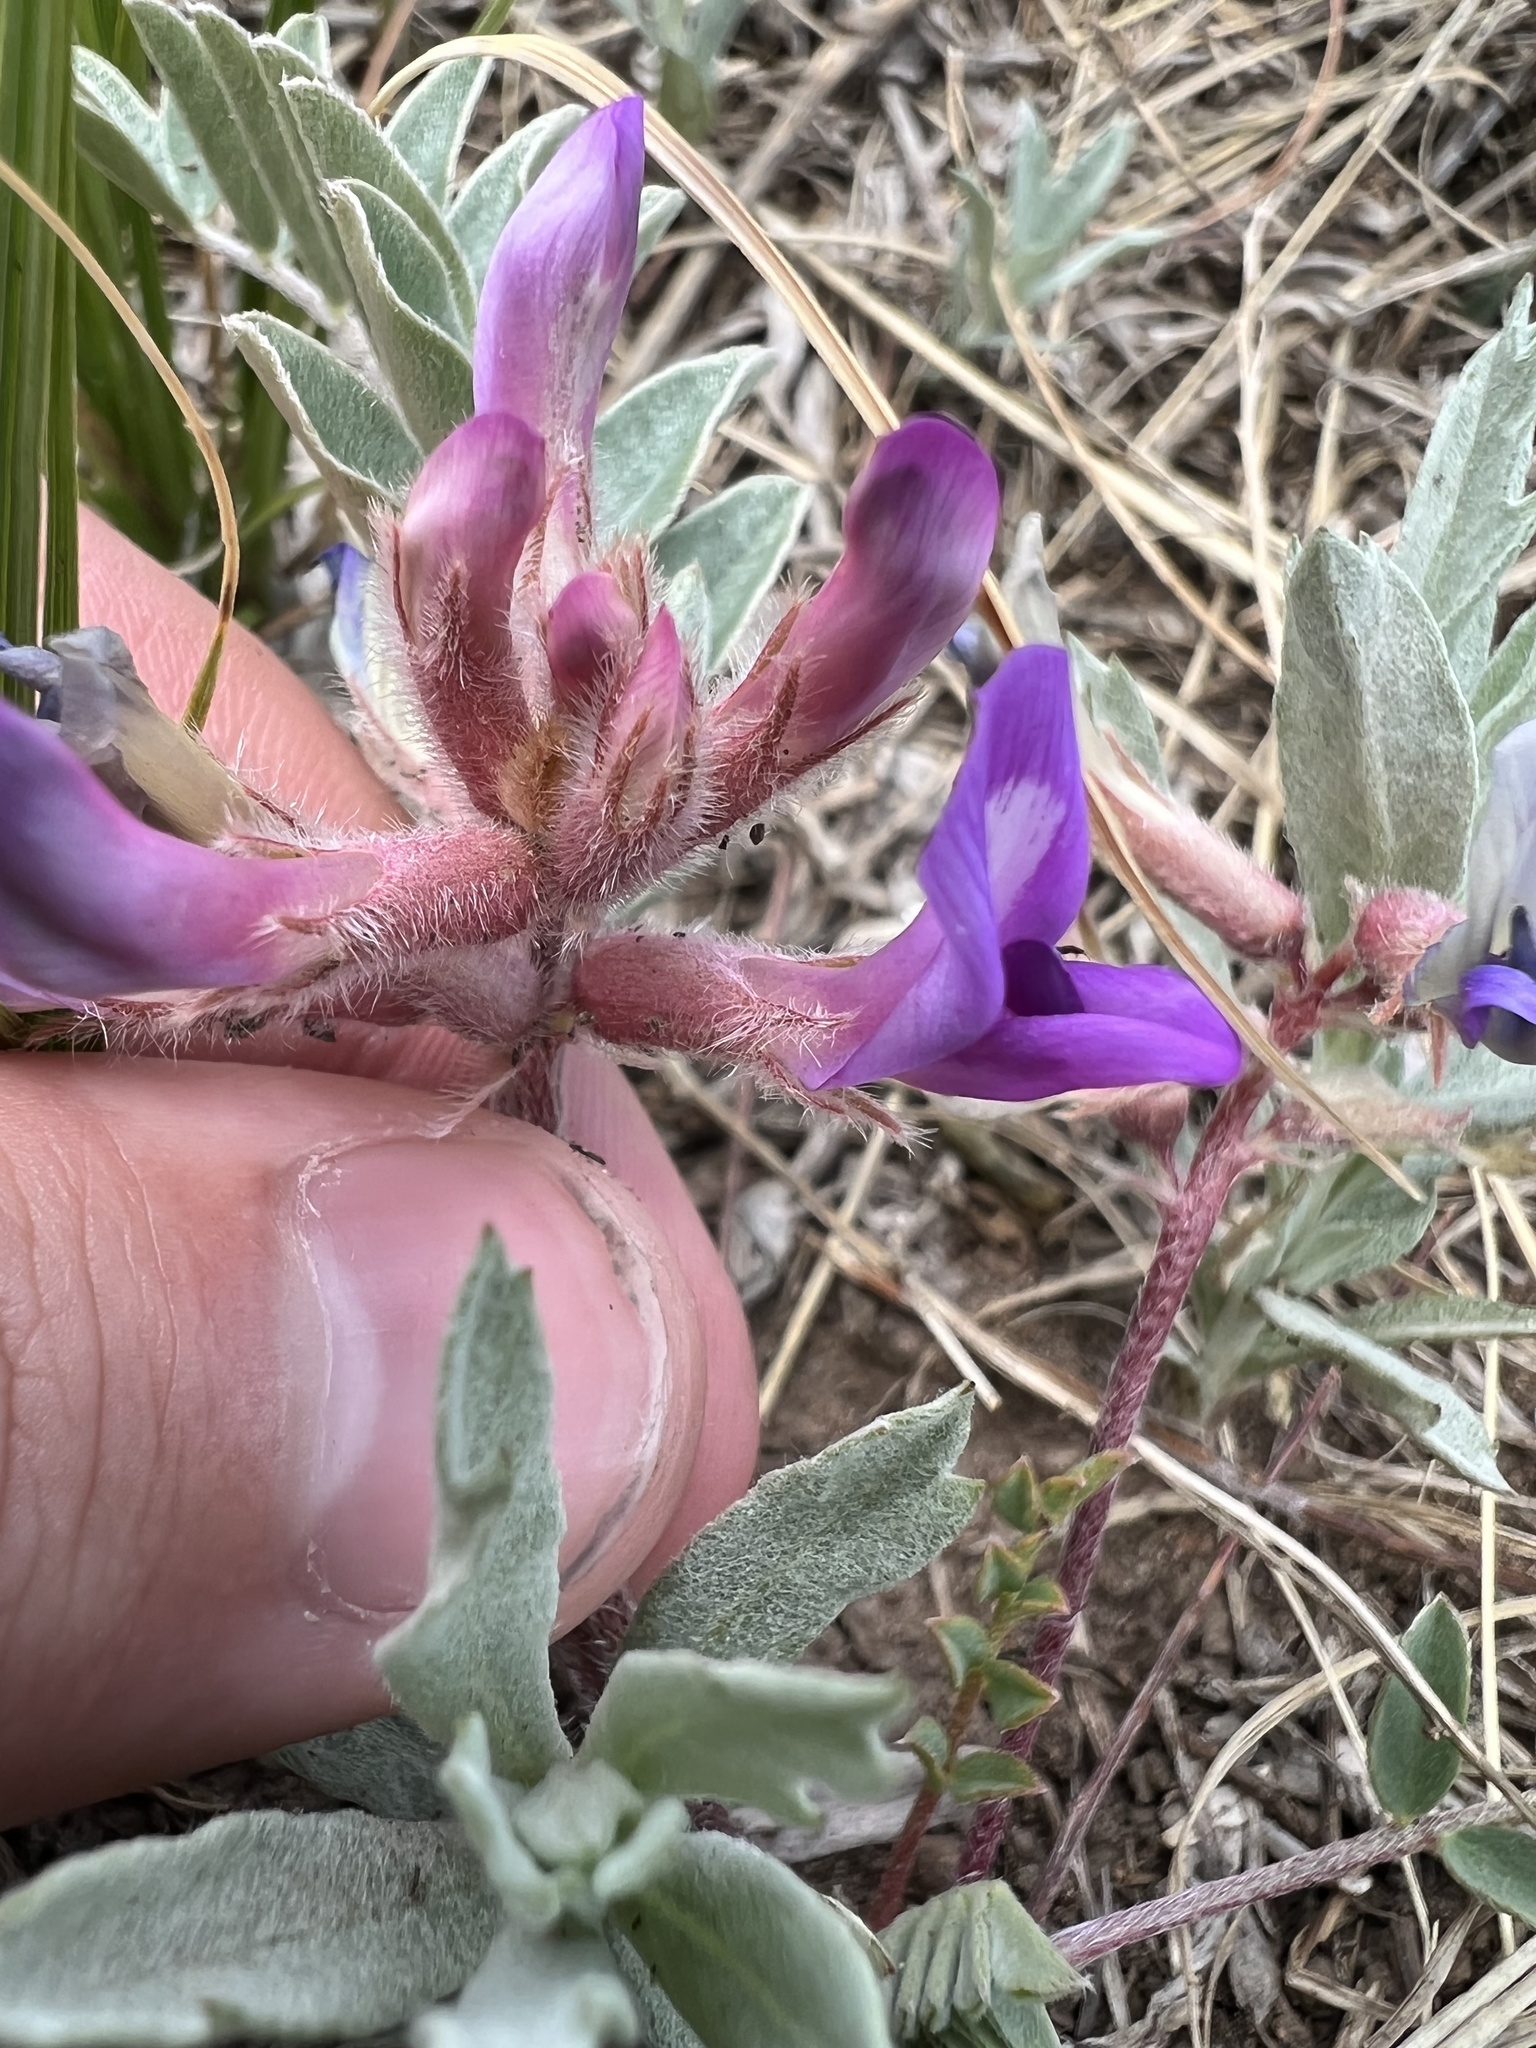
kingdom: Plantae
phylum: Tracheophyta
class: Magnoliopsida
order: Fabales
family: Fabaceae
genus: Astragalus
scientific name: Astragalus shortianus
